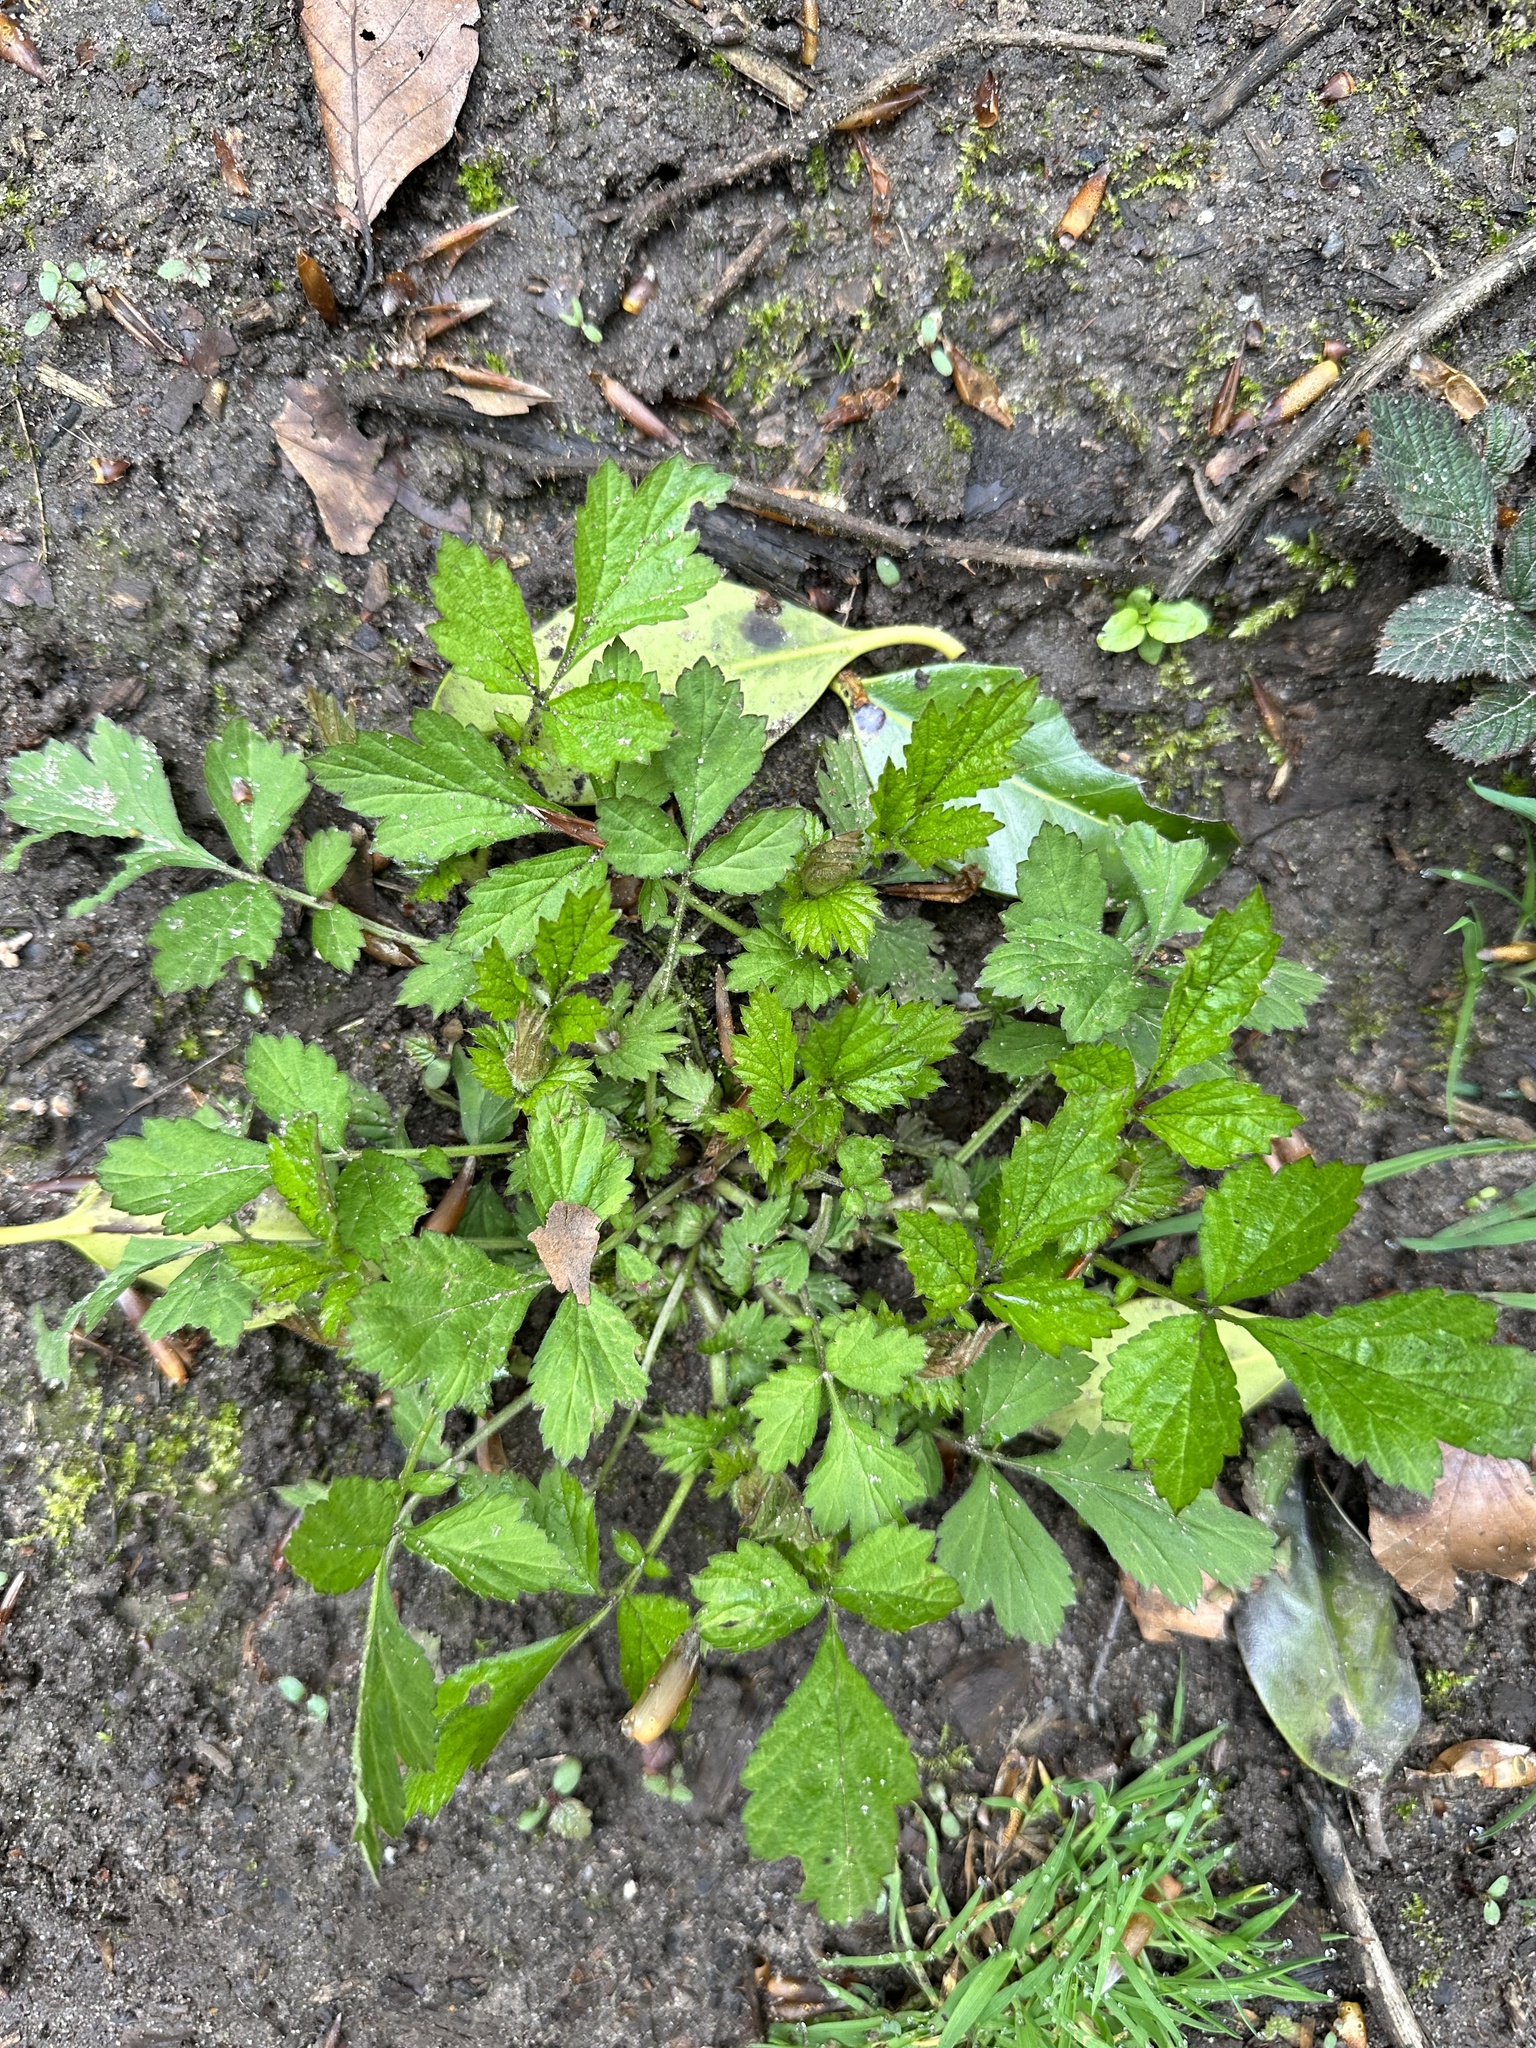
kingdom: Plantae
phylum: Tracheophyta
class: Magnoliopsida
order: Rosales
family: Rosaceae
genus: Geum
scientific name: Geum urbanum
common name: Wood avens
